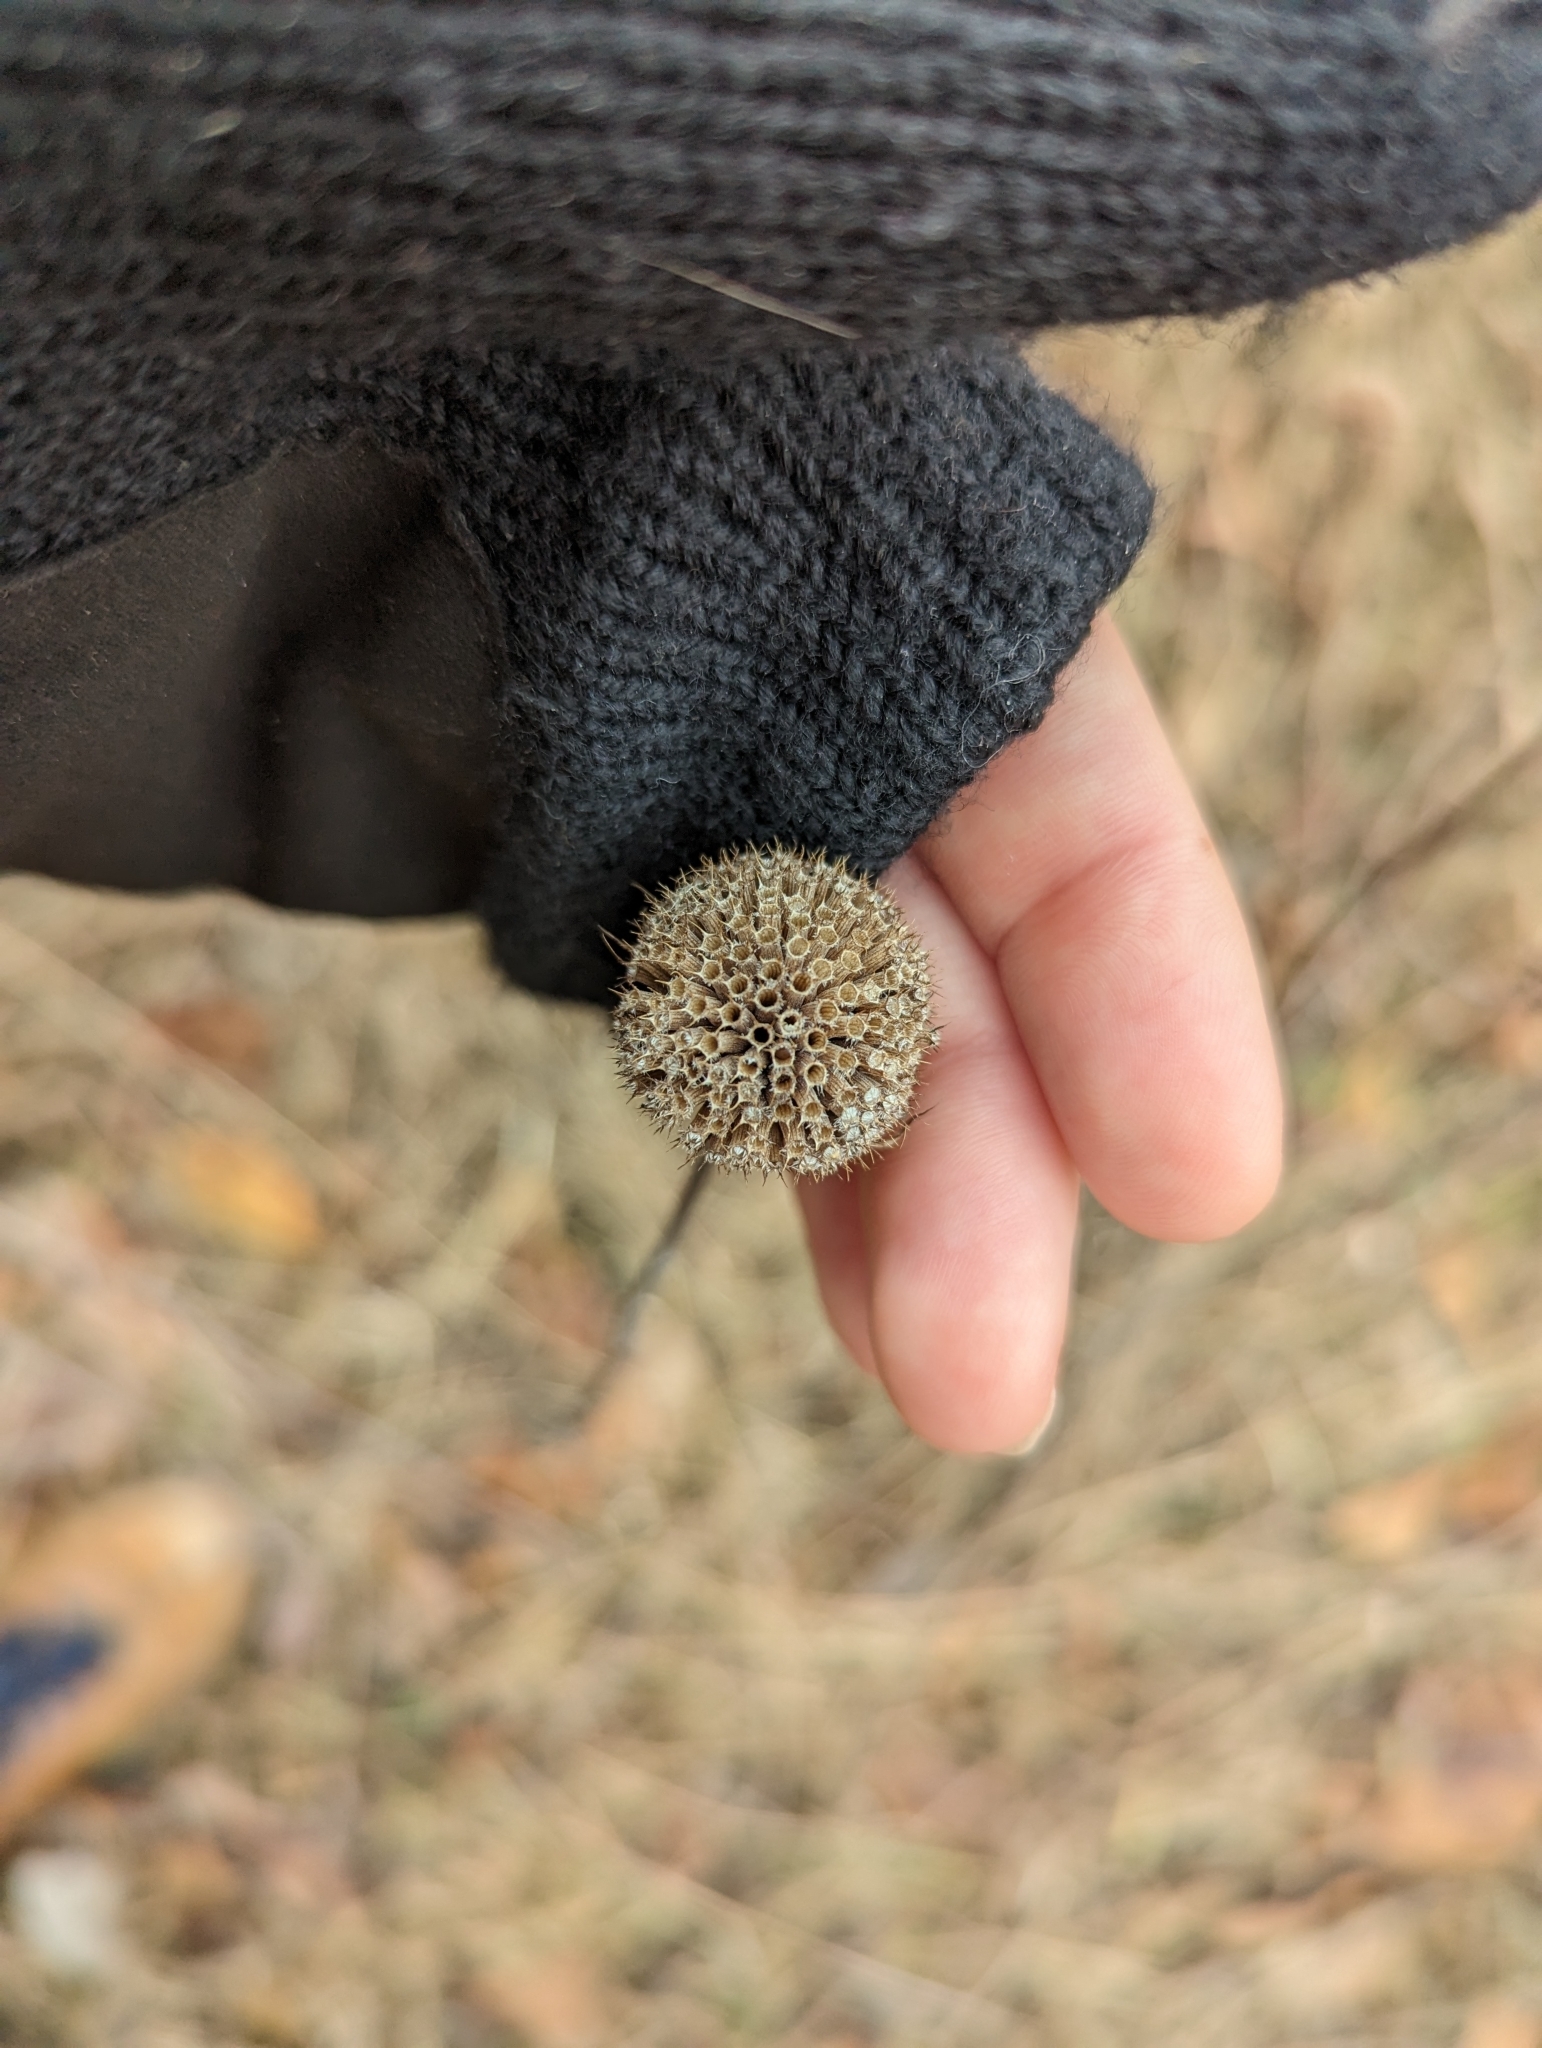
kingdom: Plantae
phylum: Tracheophyta
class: Magnoliopsida
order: Lamiales
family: Lamiaceae
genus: Monarda
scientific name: Monarda fistulosa
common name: Purple beebalm
